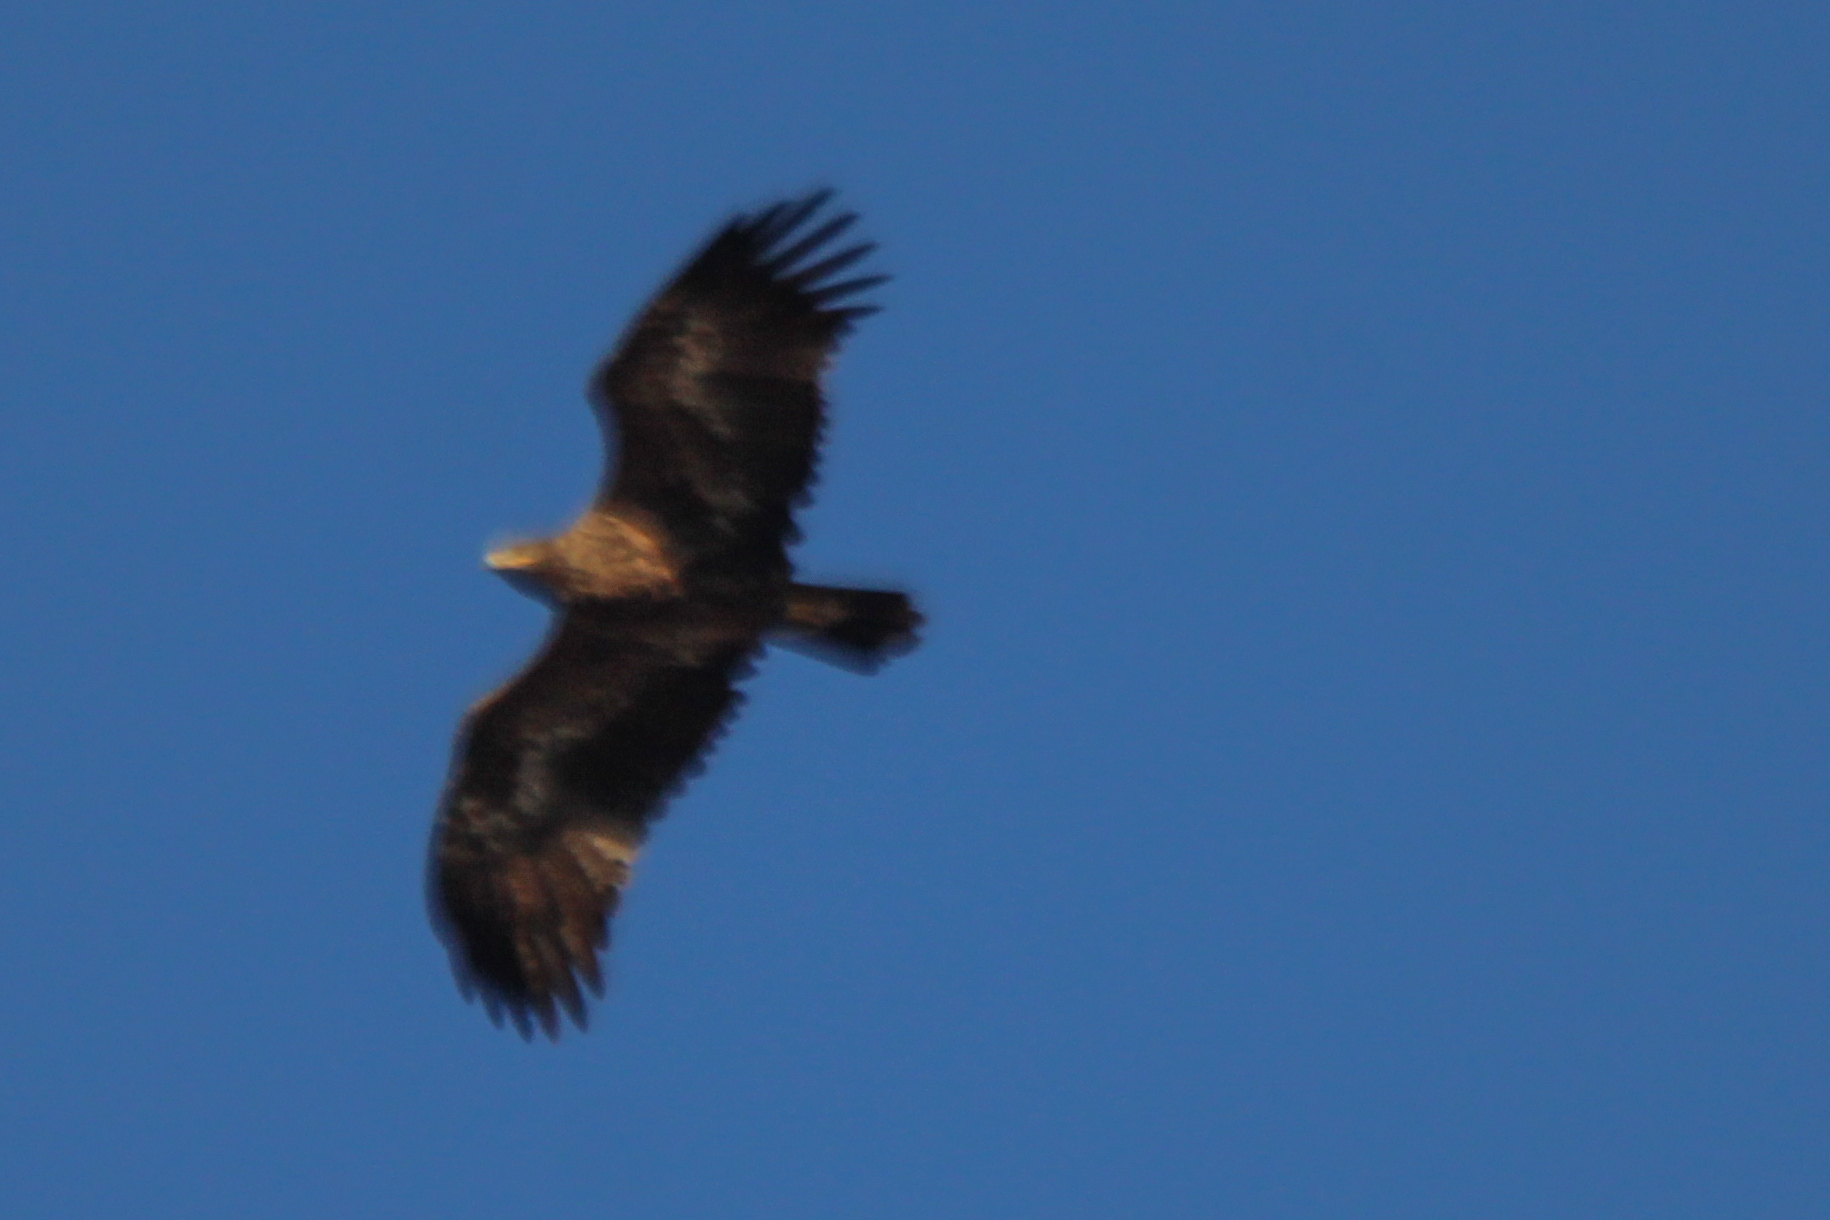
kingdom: Animalia
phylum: Chordata
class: Aves
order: Accipitriformes
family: Accipitridae
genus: Aquila
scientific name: Aquila nipalensis
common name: Steppe eagle
